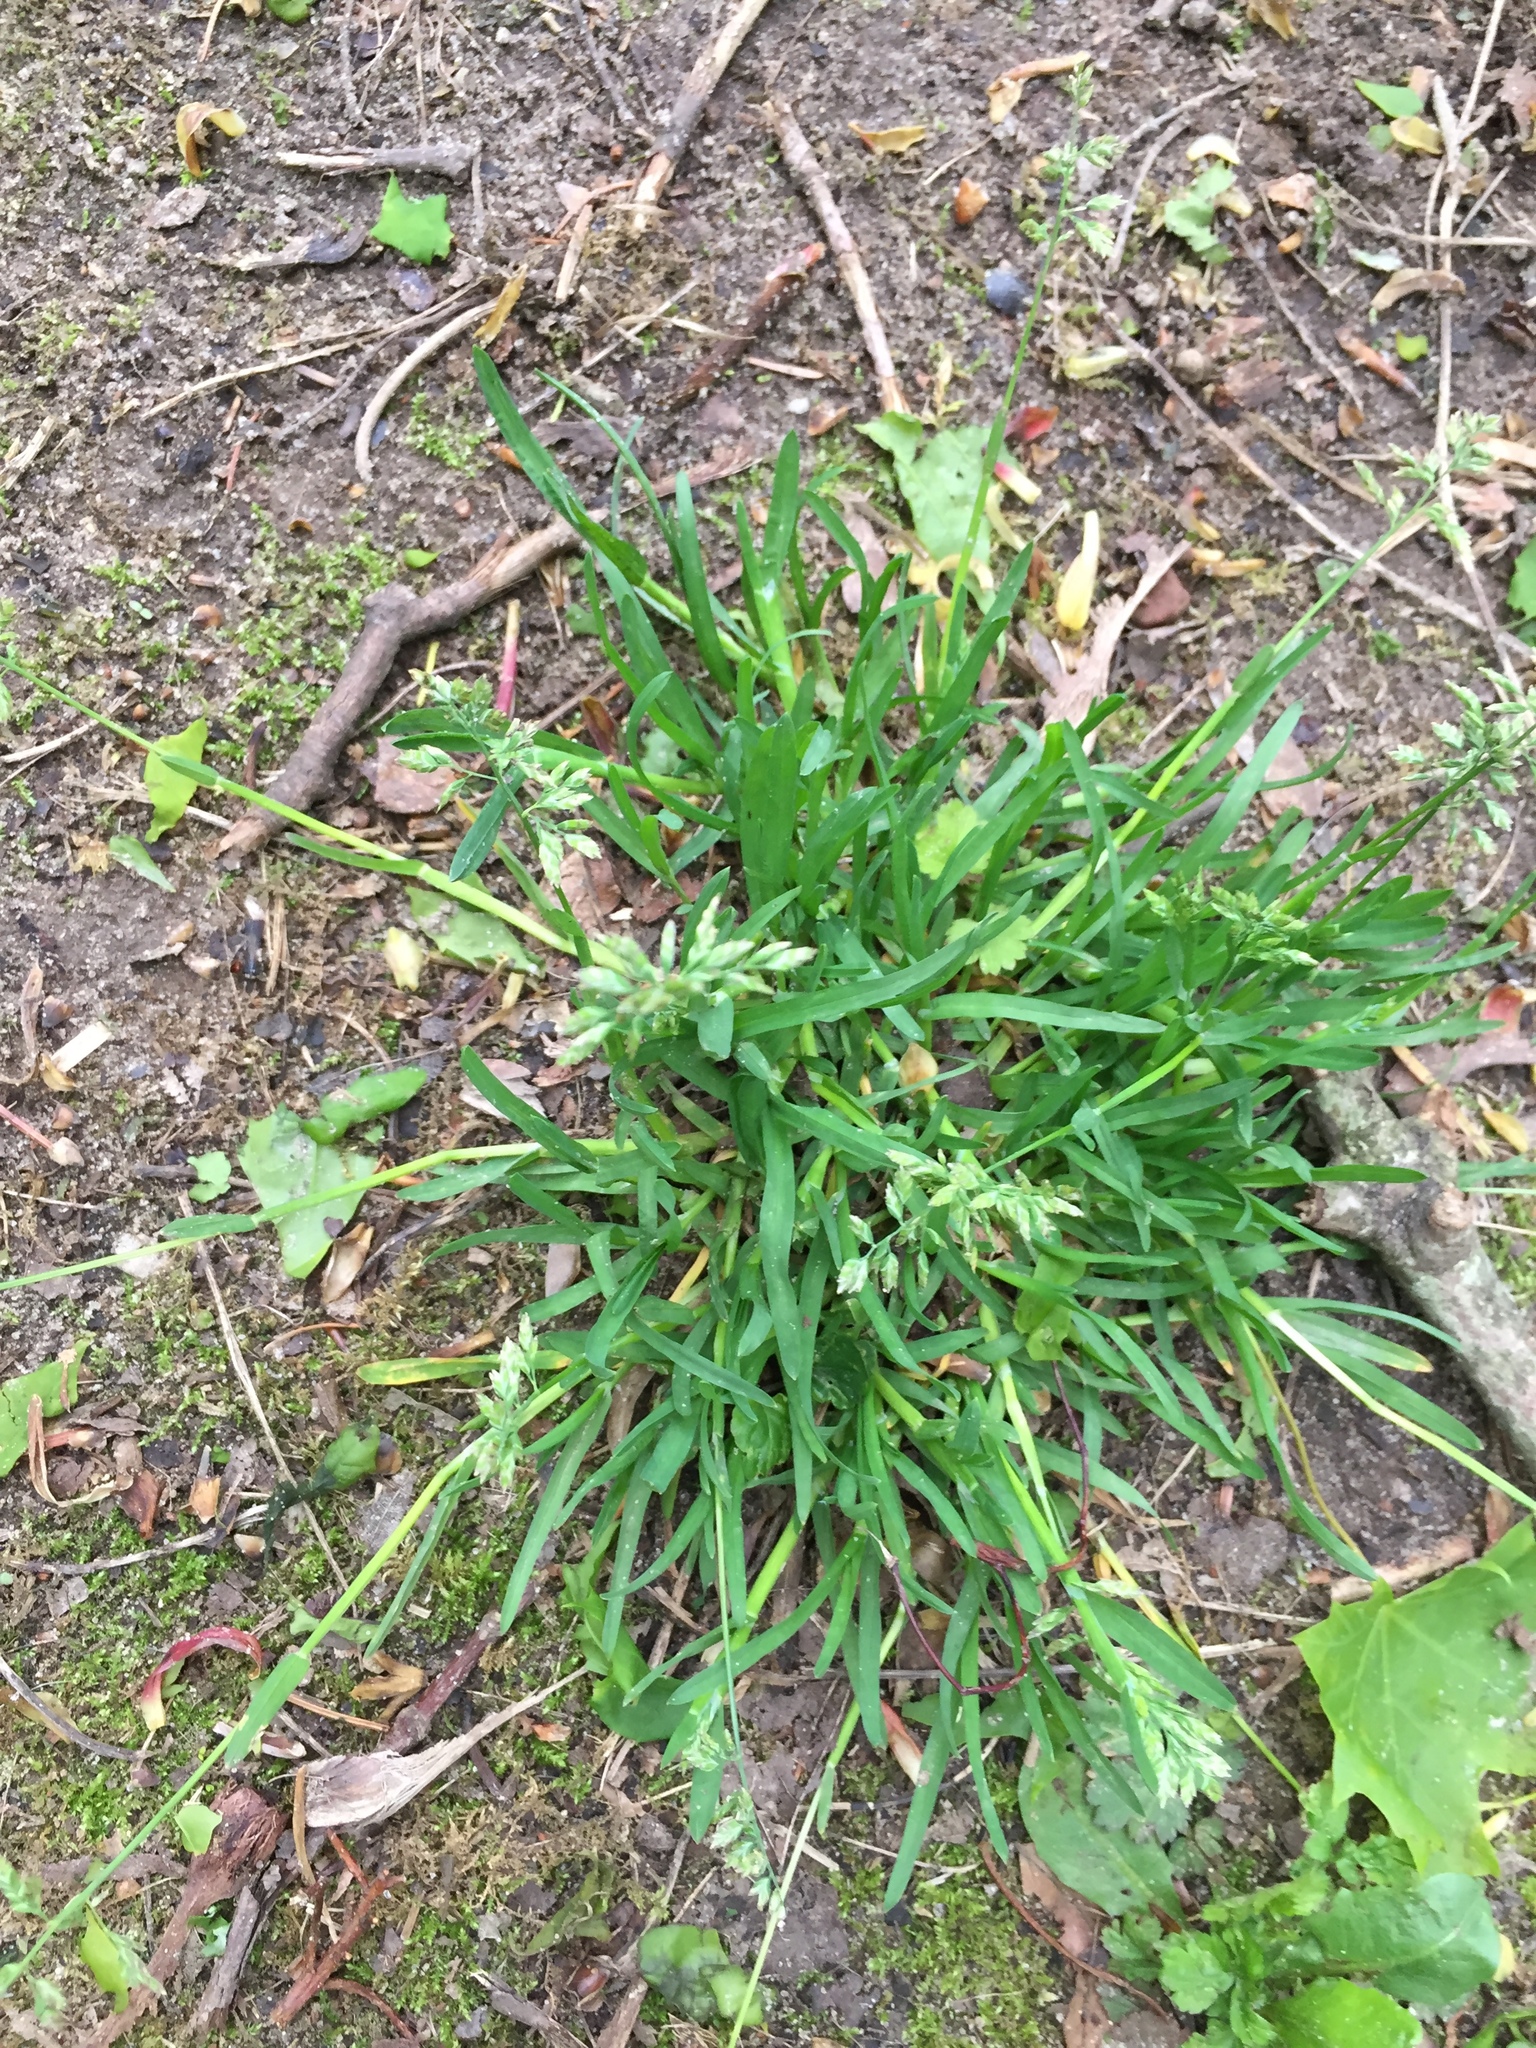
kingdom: Plantae
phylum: Tracheophyta
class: Liliopsida
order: Poales
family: Poaceae
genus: Poa
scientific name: Poa annua
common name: Annual bluegrass
